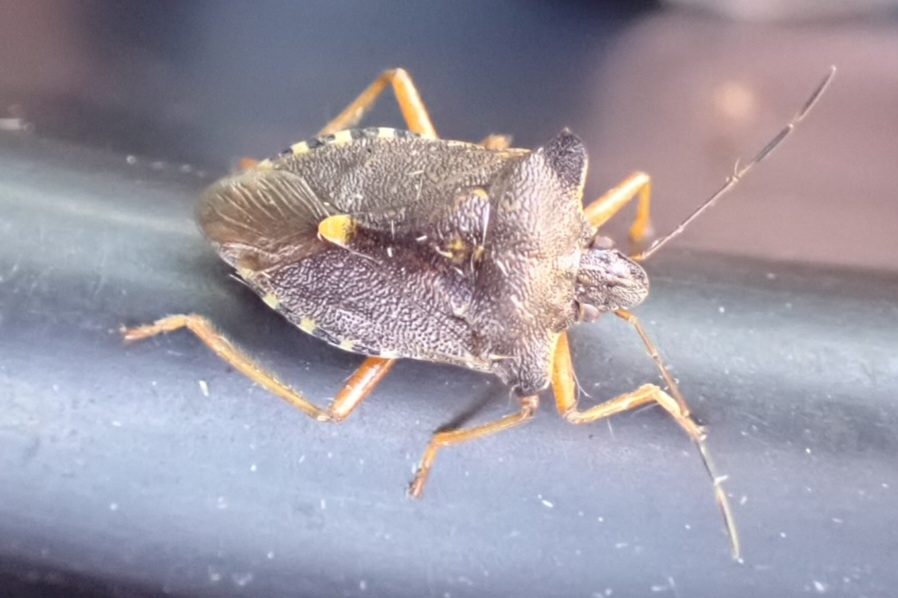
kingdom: Animalia
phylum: Arthropoda
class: Insecta
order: Hemiptera
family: Pentatomidae
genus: Pentatoma
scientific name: Pentatoma rufipes
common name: Forest bug
